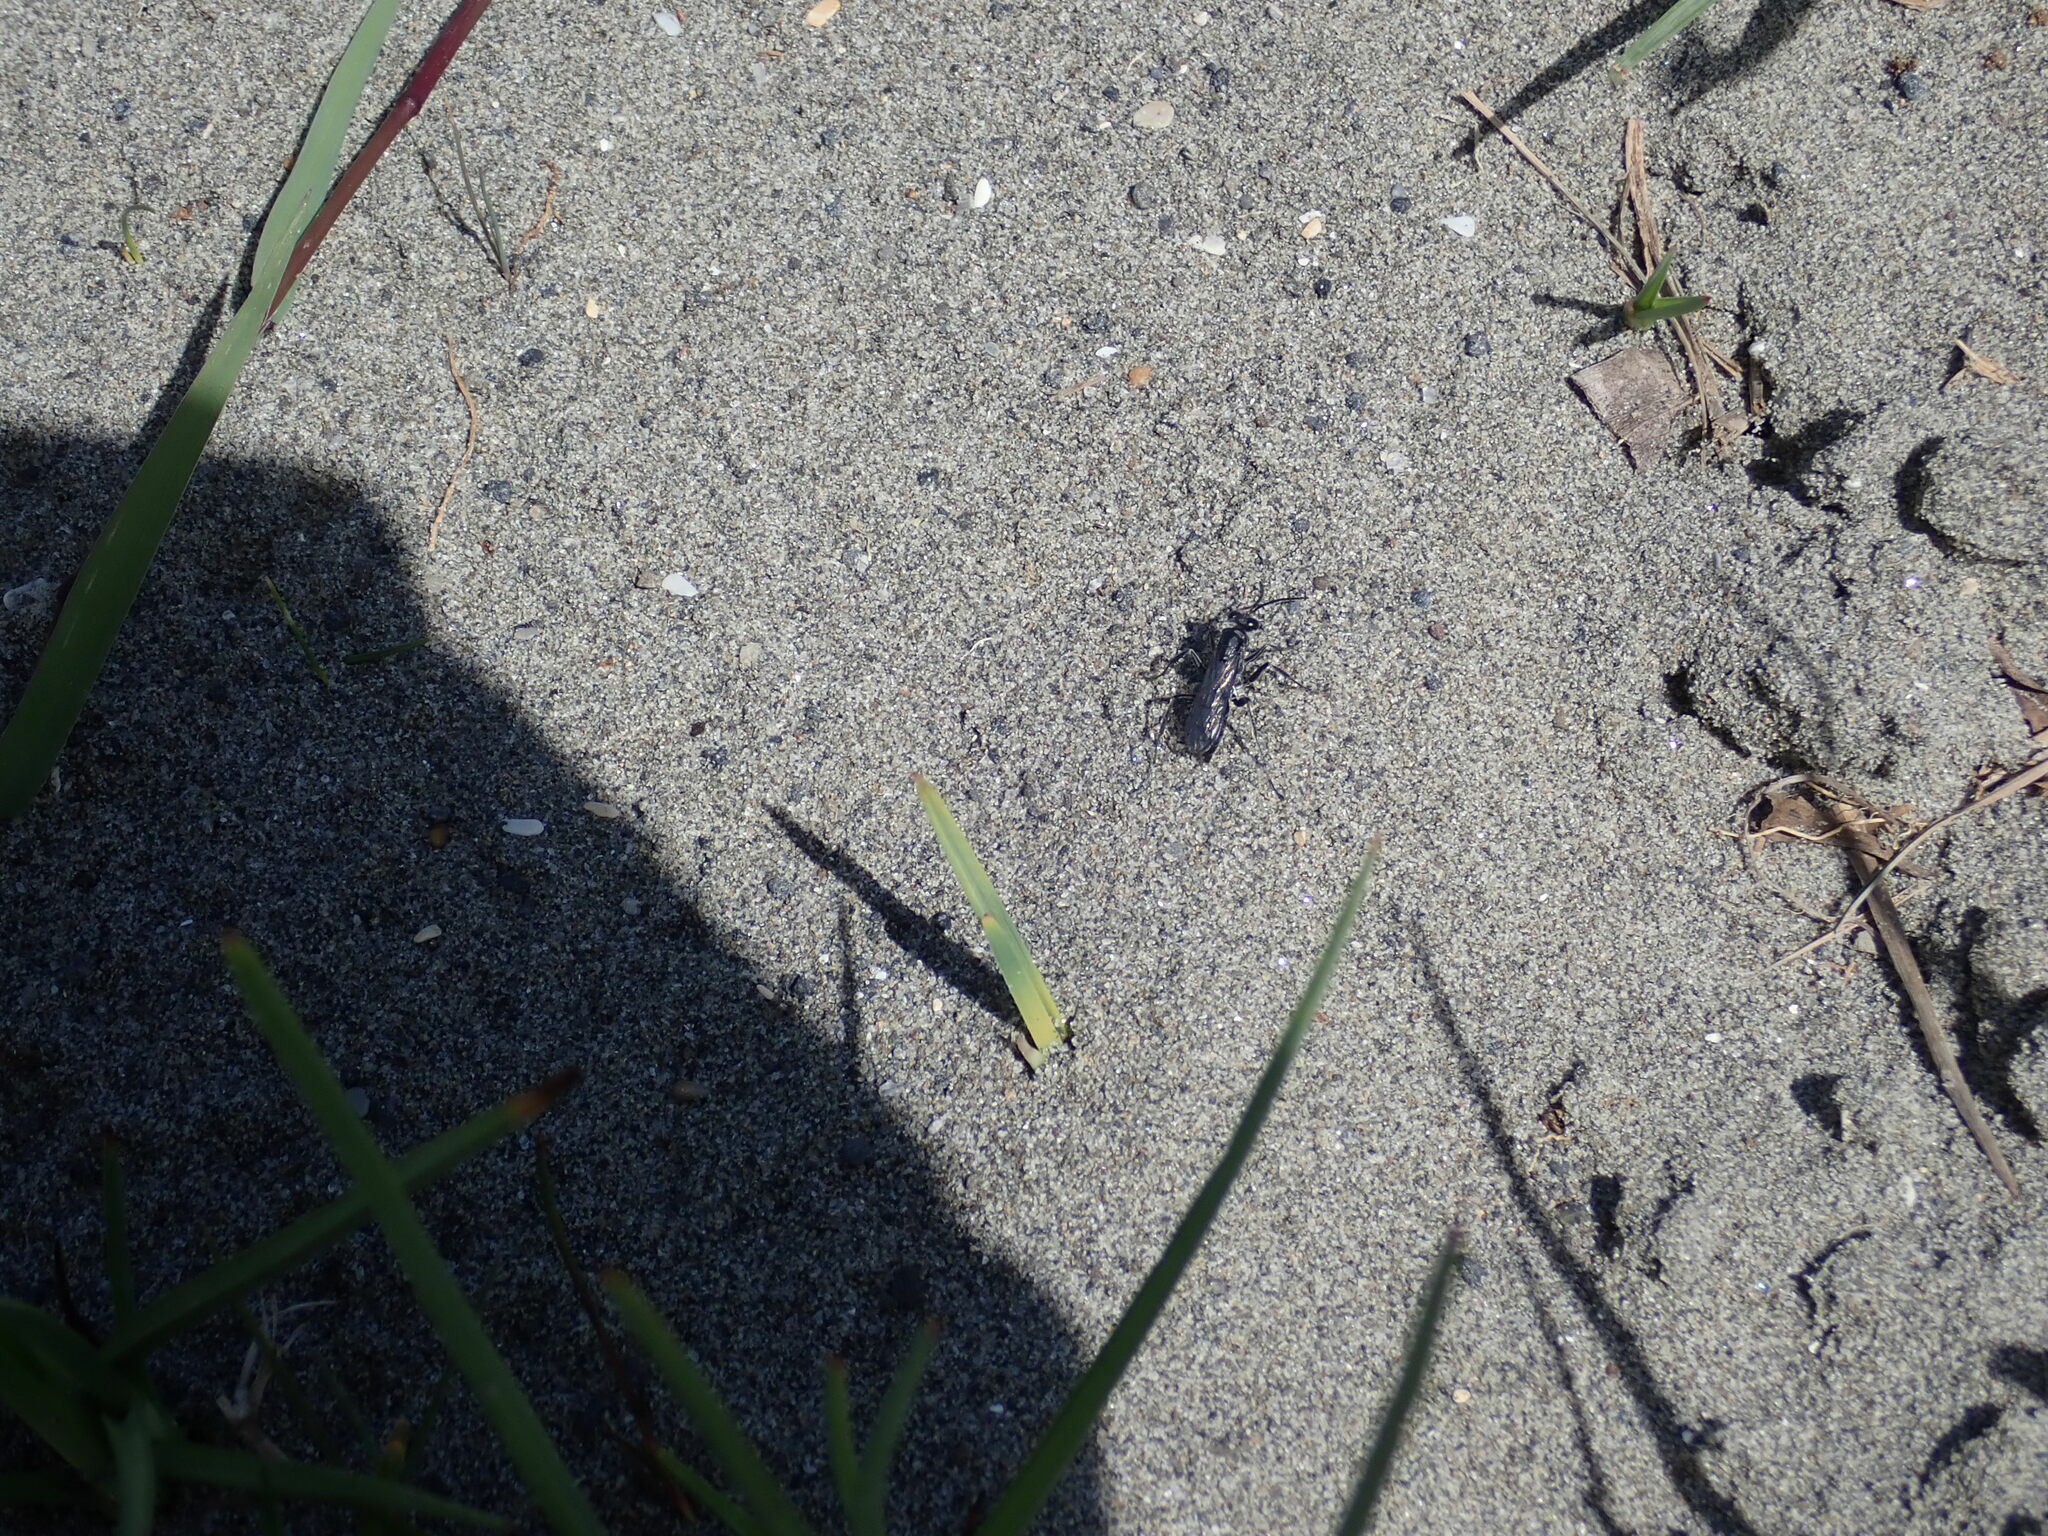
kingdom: Animalia
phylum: Arthropoda
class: Insecta
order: Hymenoptera
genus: Trichocurgus
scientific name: Trichocurgus
